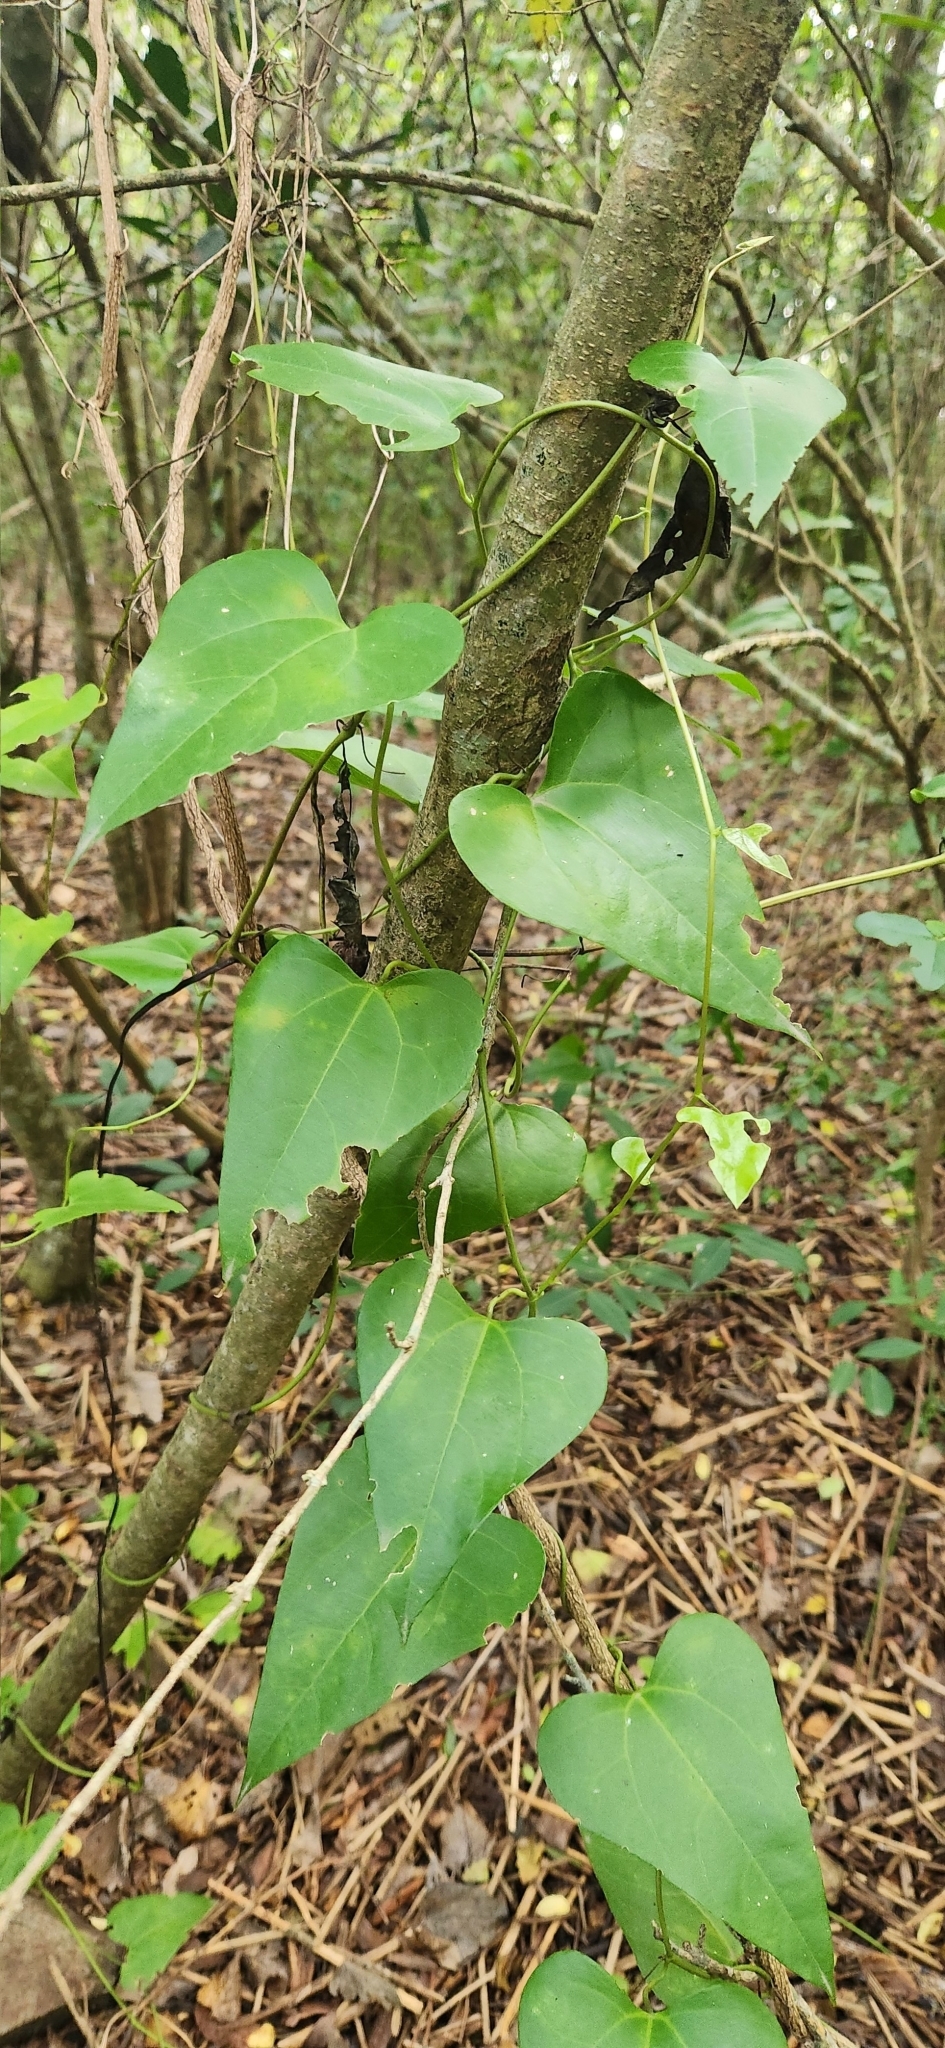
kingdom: Plantae
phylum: Tracheophyta
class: Magnoliopsida
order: Piperales
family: Aristolochiaceae
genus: Aristolochia
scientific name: Aristolochia triangularis
